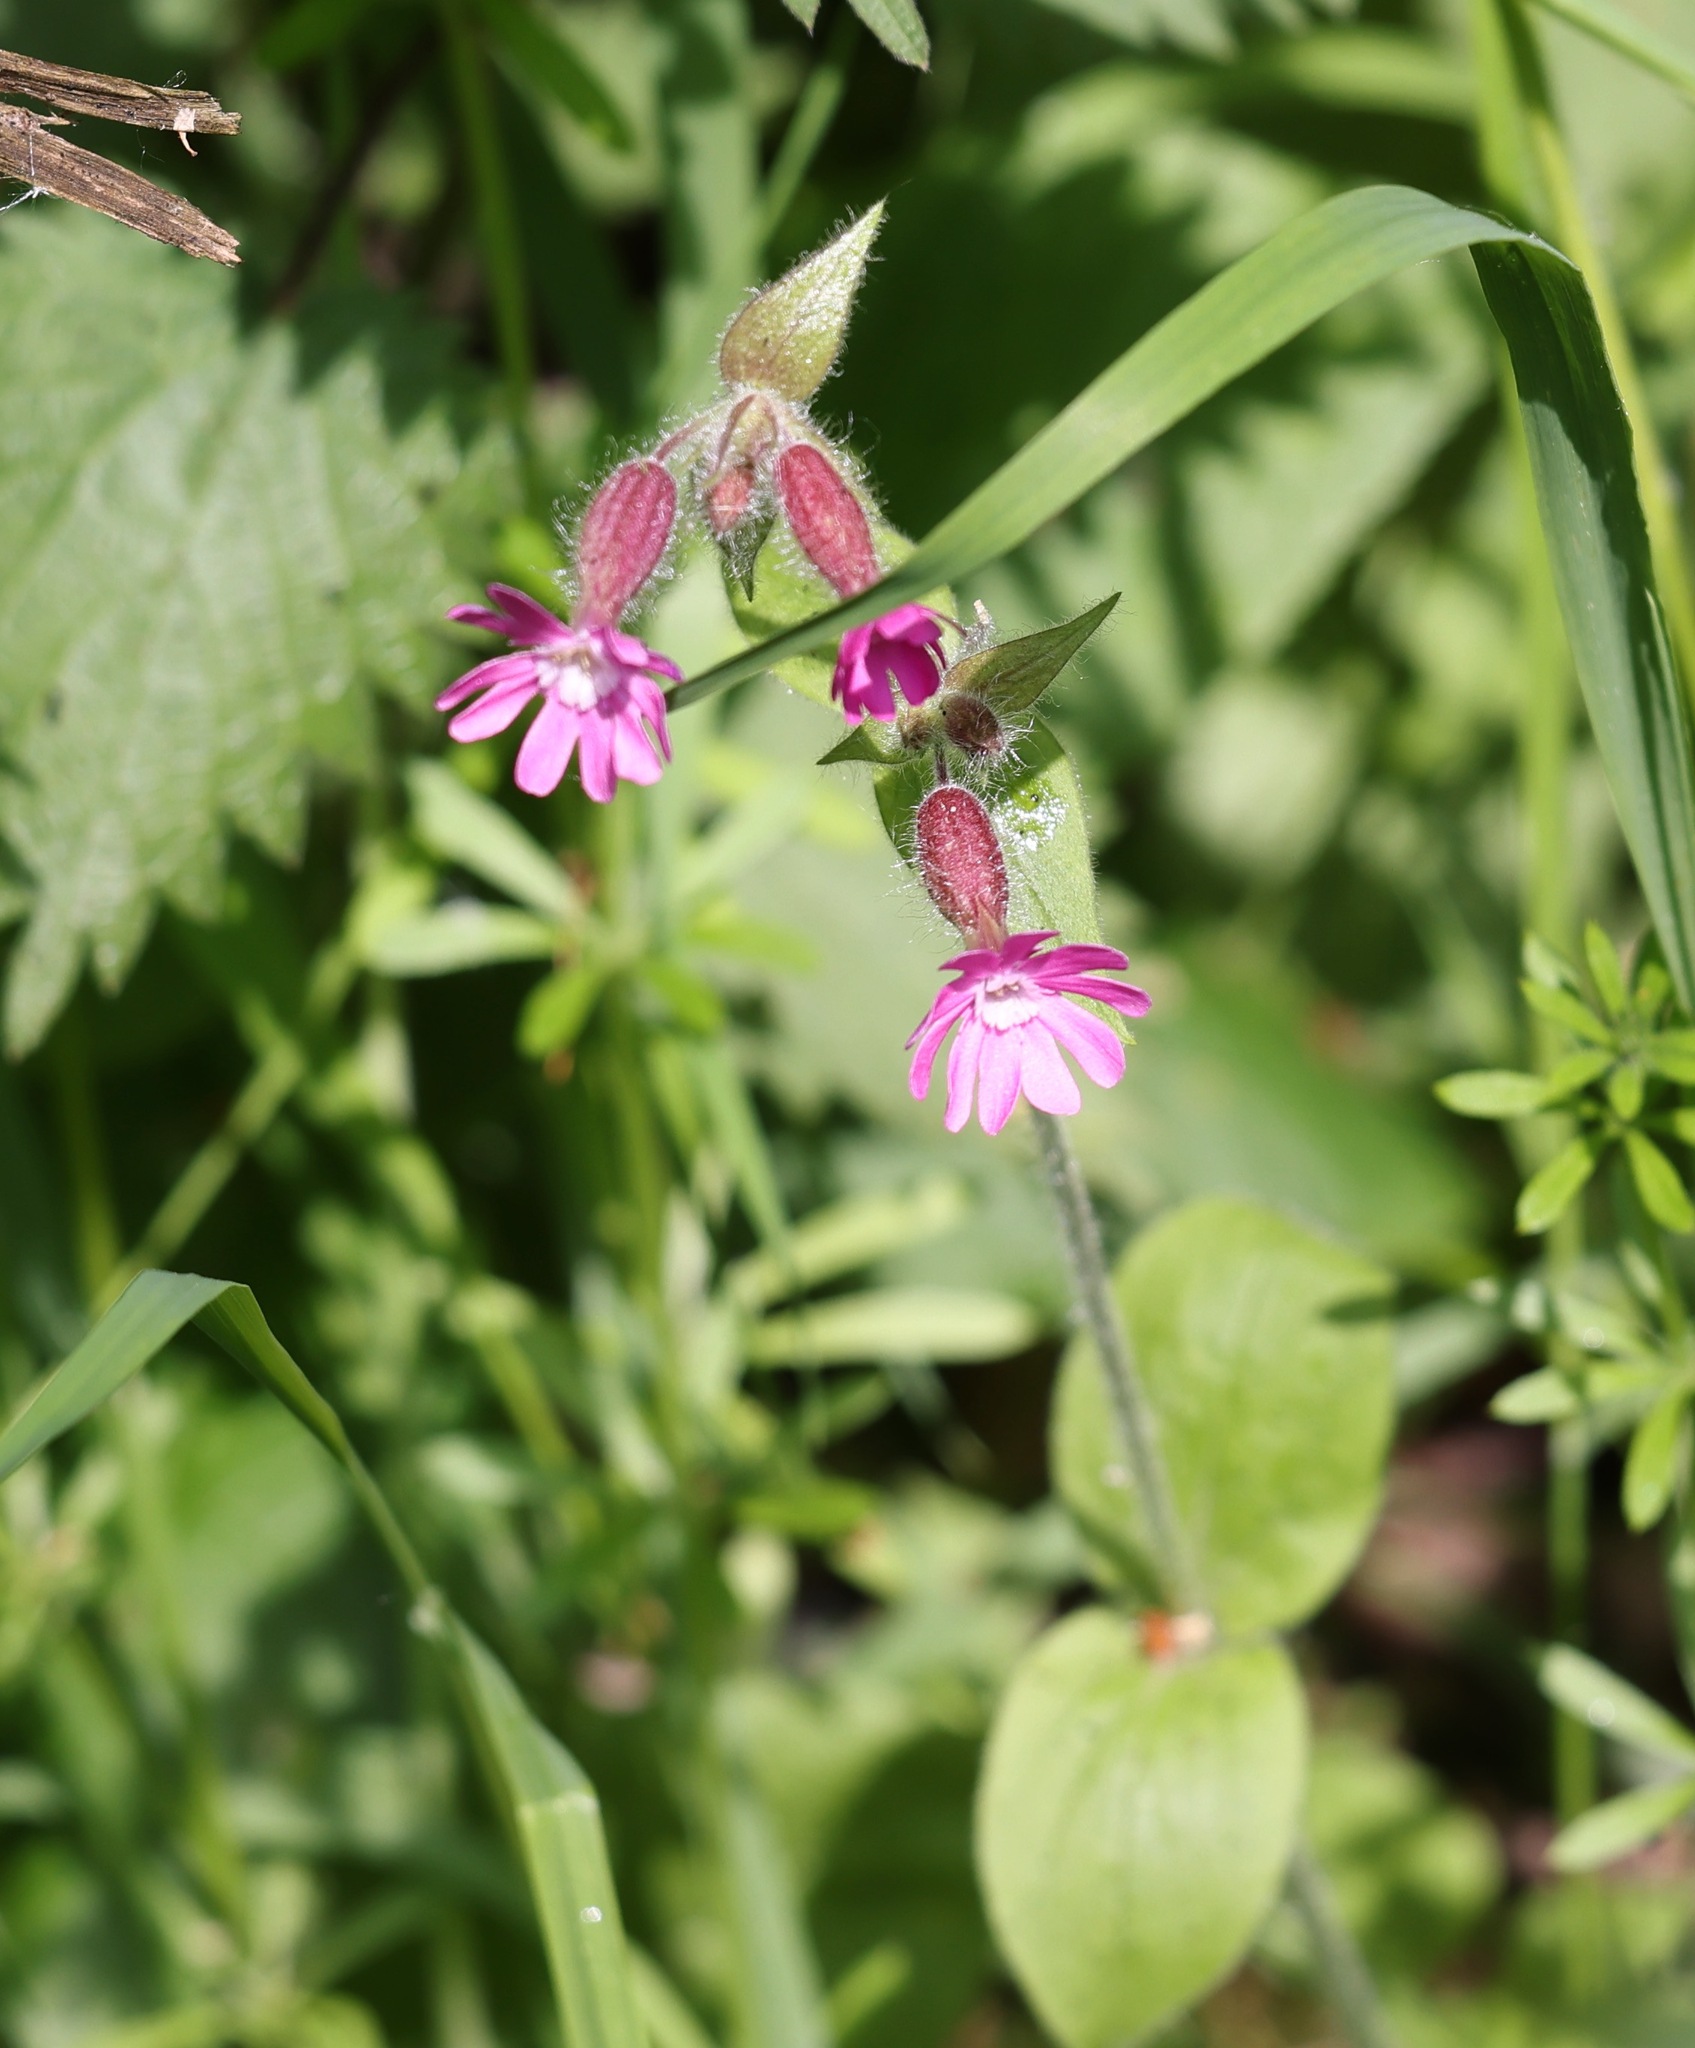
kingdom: Plantae
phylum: Tracheophyta
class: Magnoliopsida
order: Caryophyllales
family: Caryophyllaceae
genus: Silene
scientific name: Silene dioica
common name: Red campion
